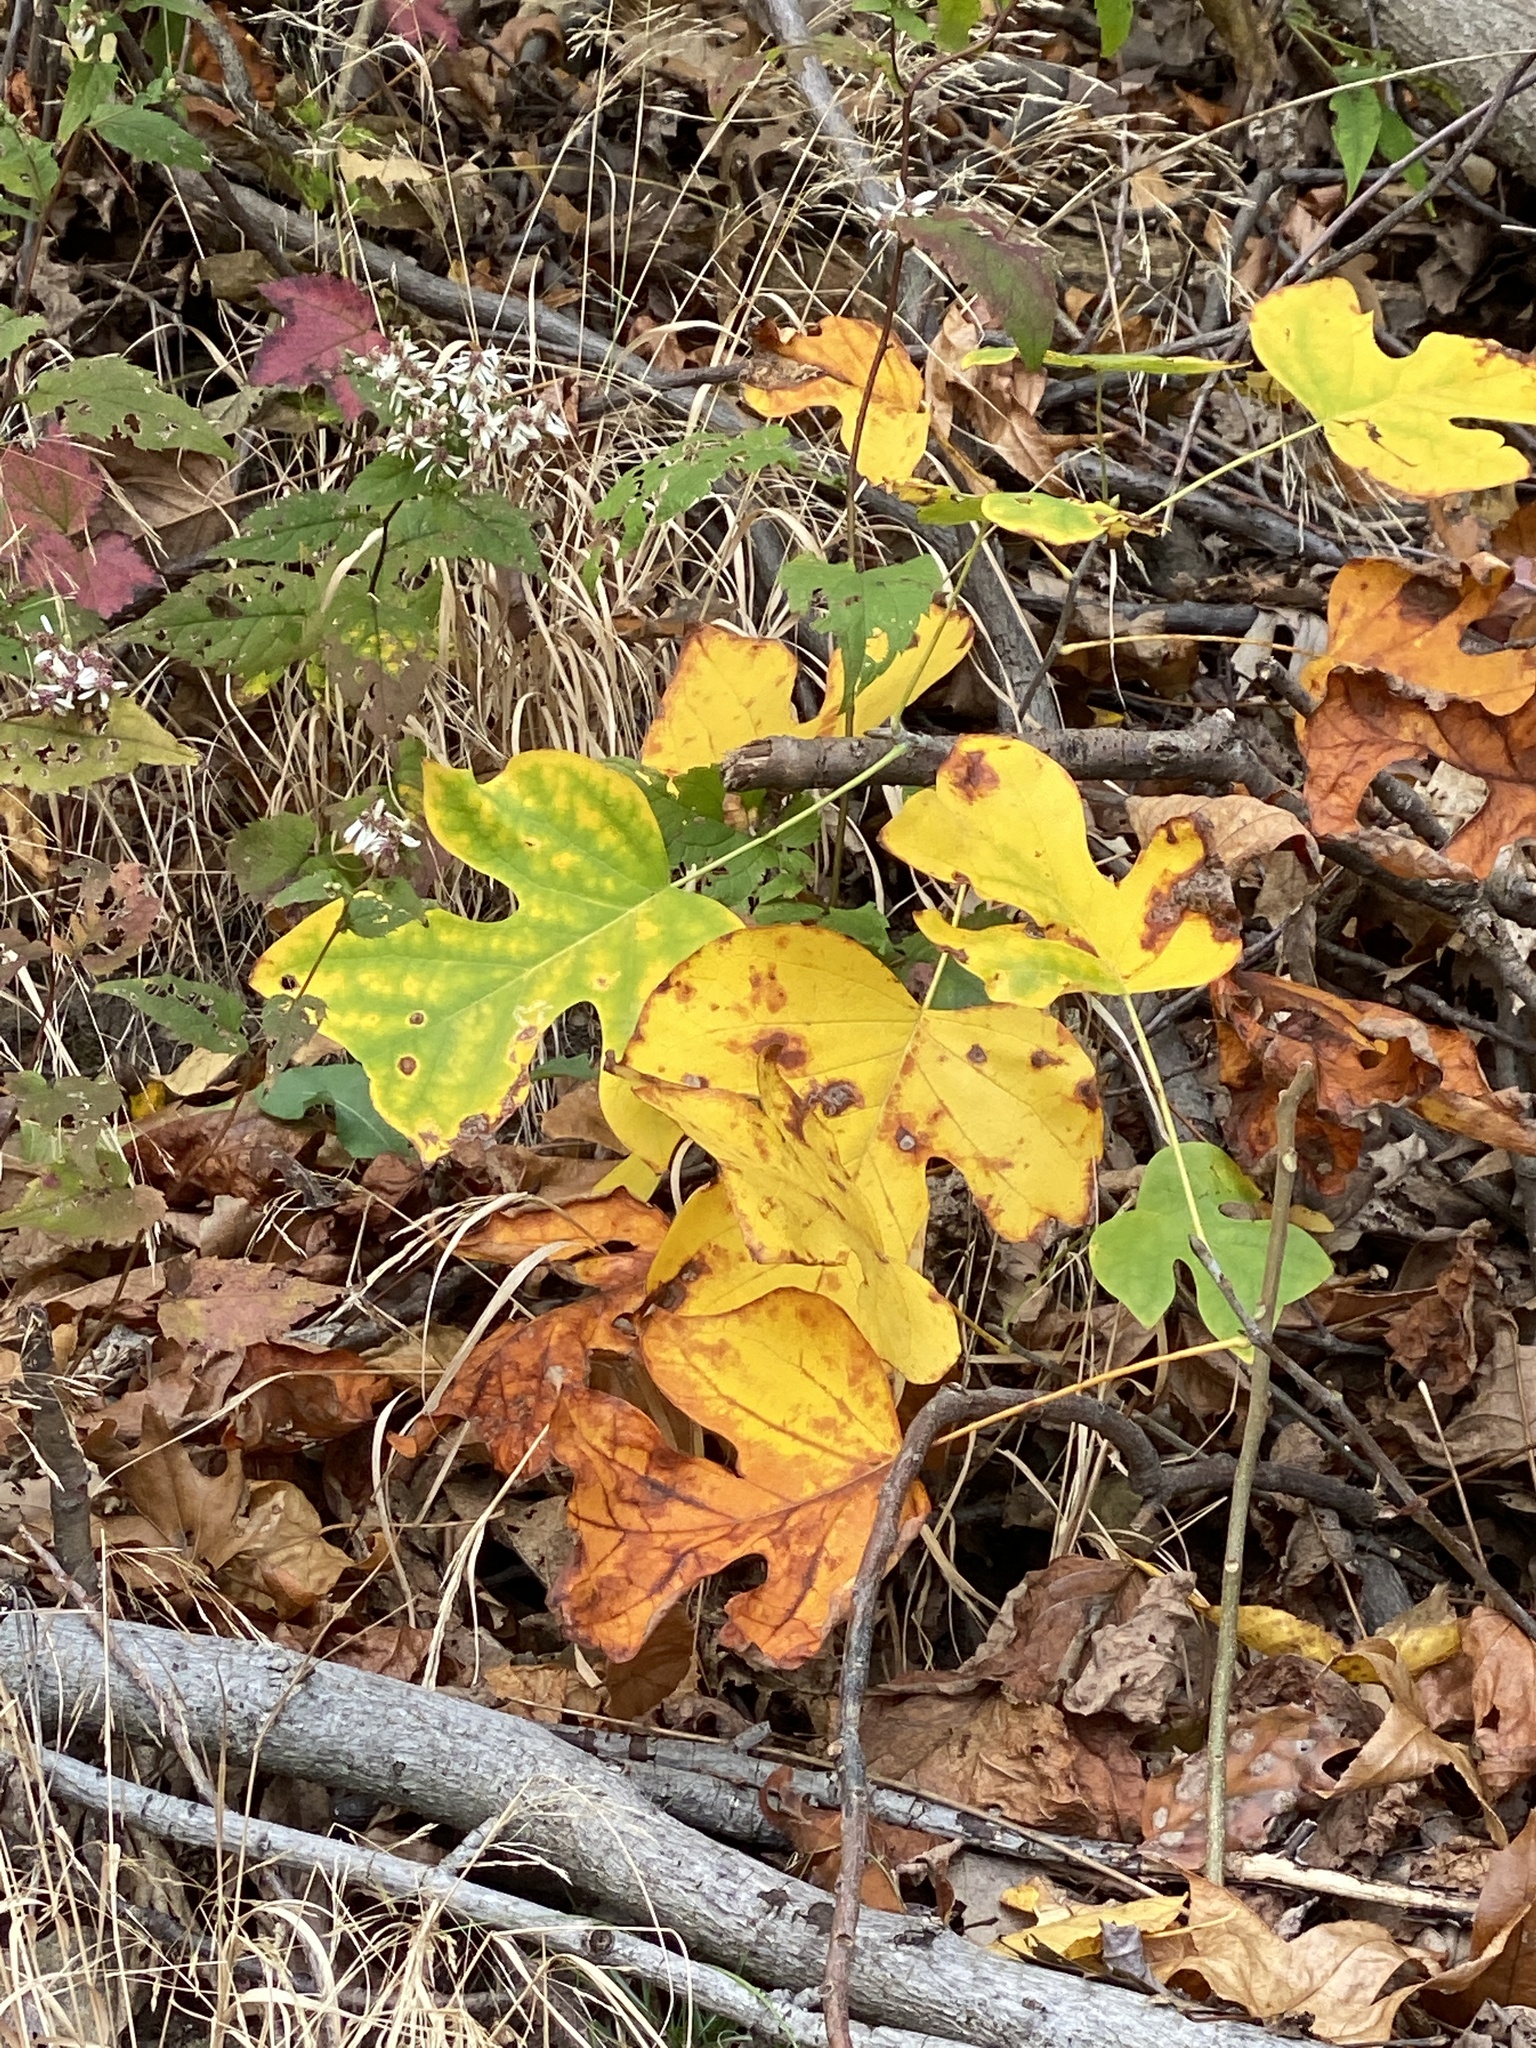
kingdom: Plantae
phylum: Tracheophyta
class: Magnoliopsida
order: Magnoliales
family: Magnoliaceae
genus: Liriodendron
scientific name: Liriodendron tulipifera
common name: Tulip tree
